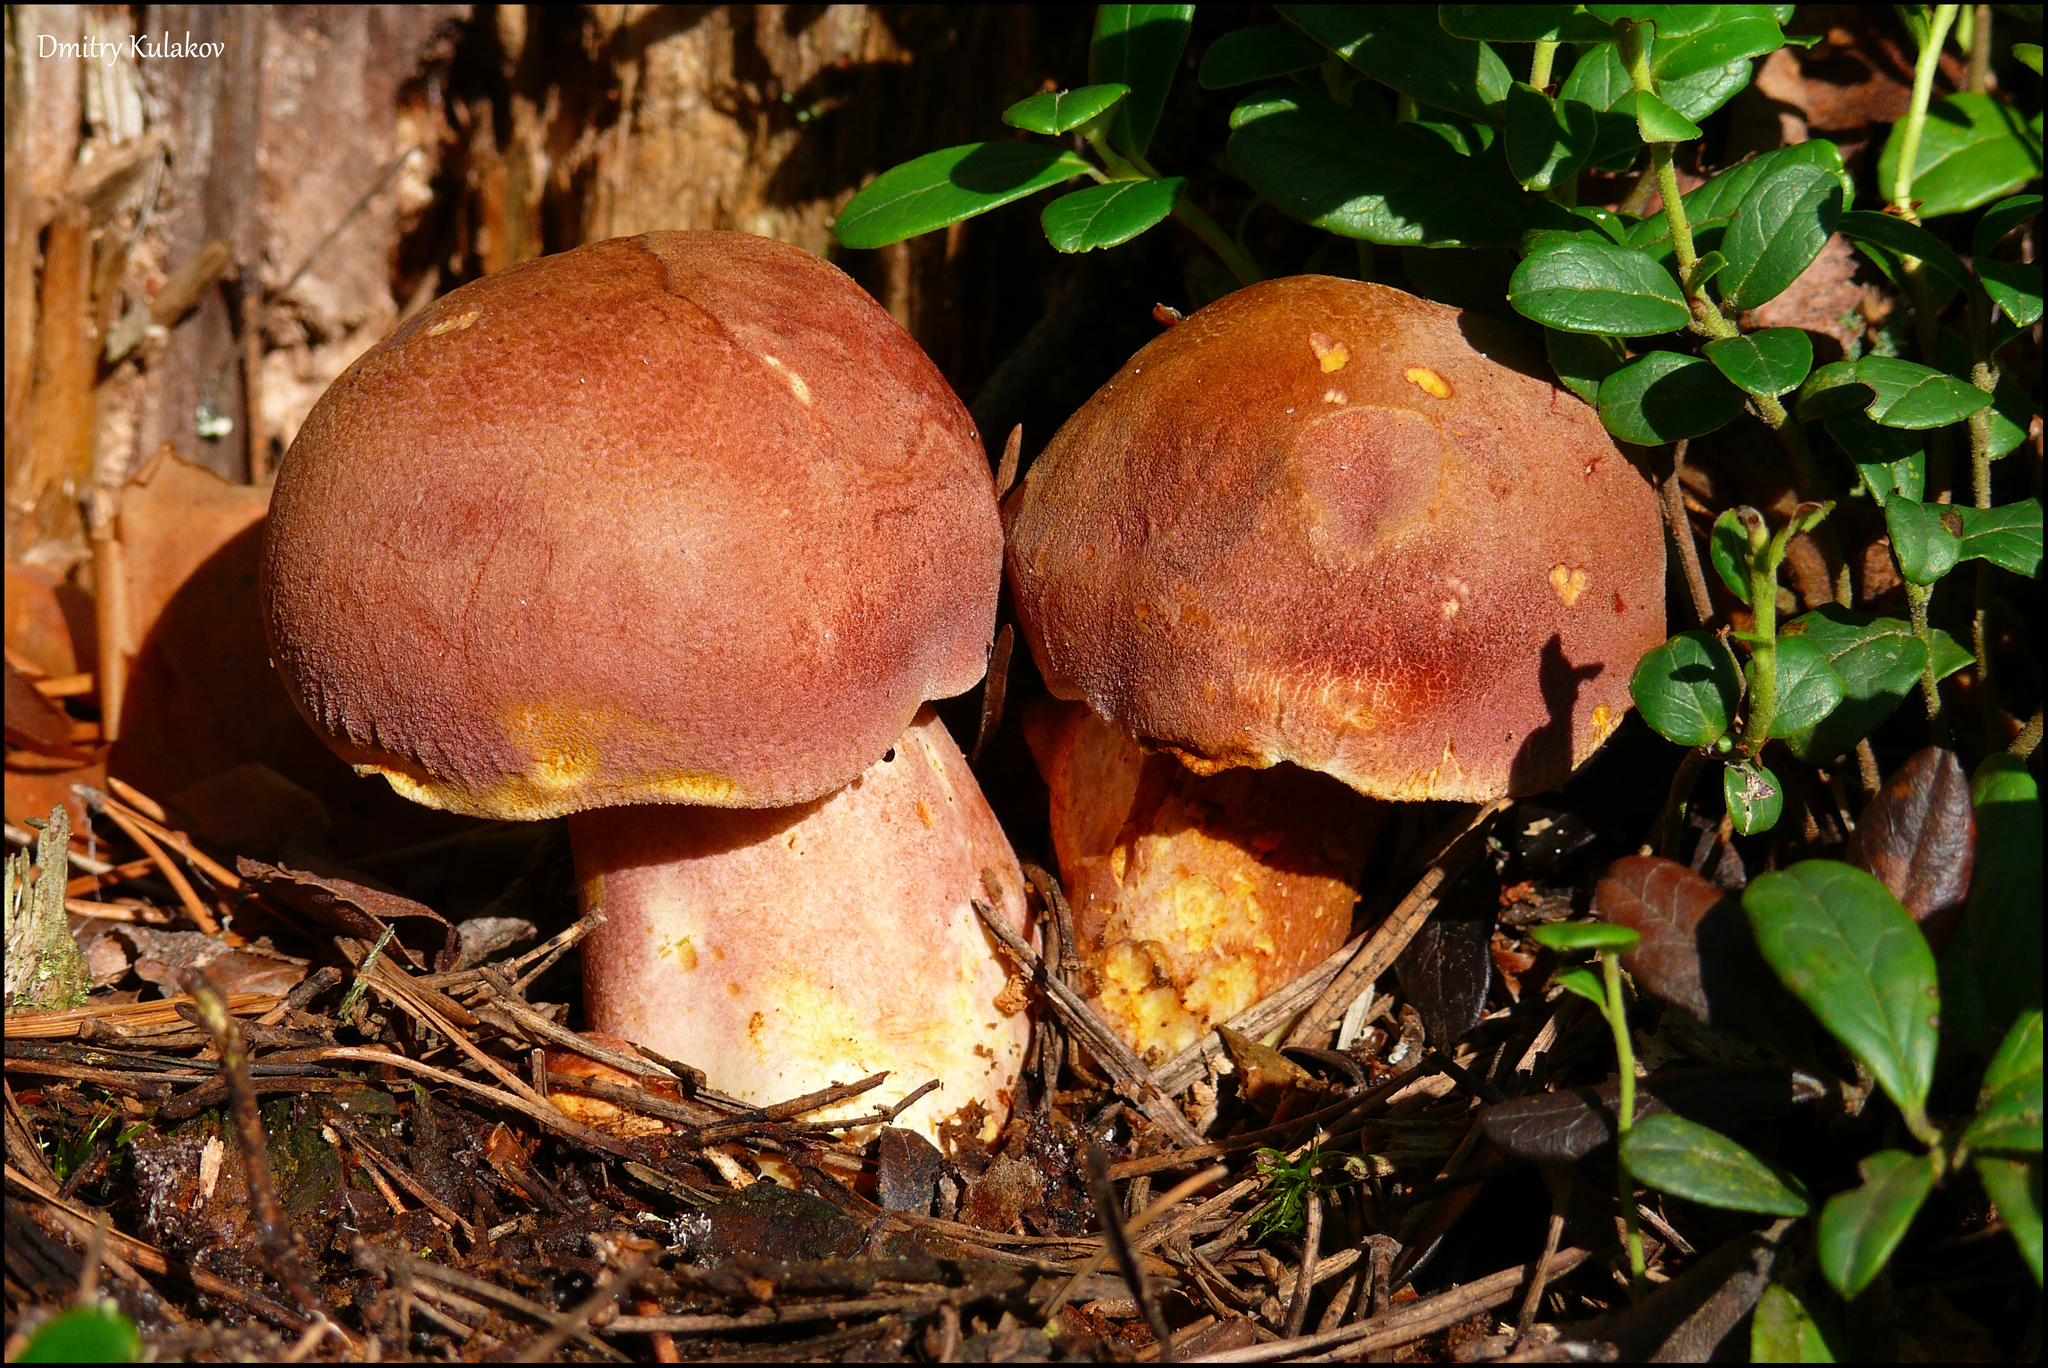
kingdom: Fungi
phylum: Basidiomycota
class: Agaricomycetes
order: Agaricales
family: Tricholomataceae
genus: Tricholomopsis
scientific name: Tricholomopsis rutilans
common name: Plums and custard
